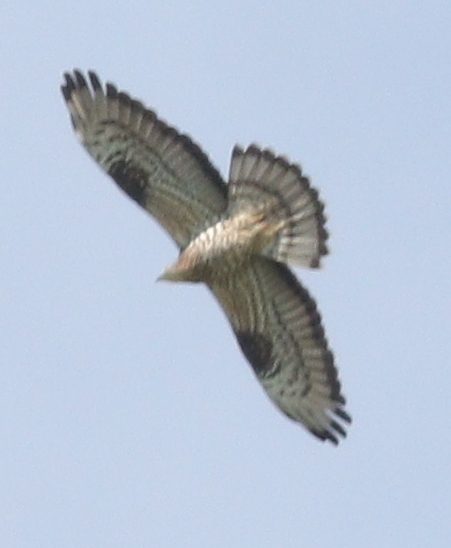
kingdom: Animalia
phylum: Chordata
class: Aves
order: Accipitriformes
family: Accipitridae
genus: Pernis
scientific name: Pernis apivorus
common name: European honey buzzard
